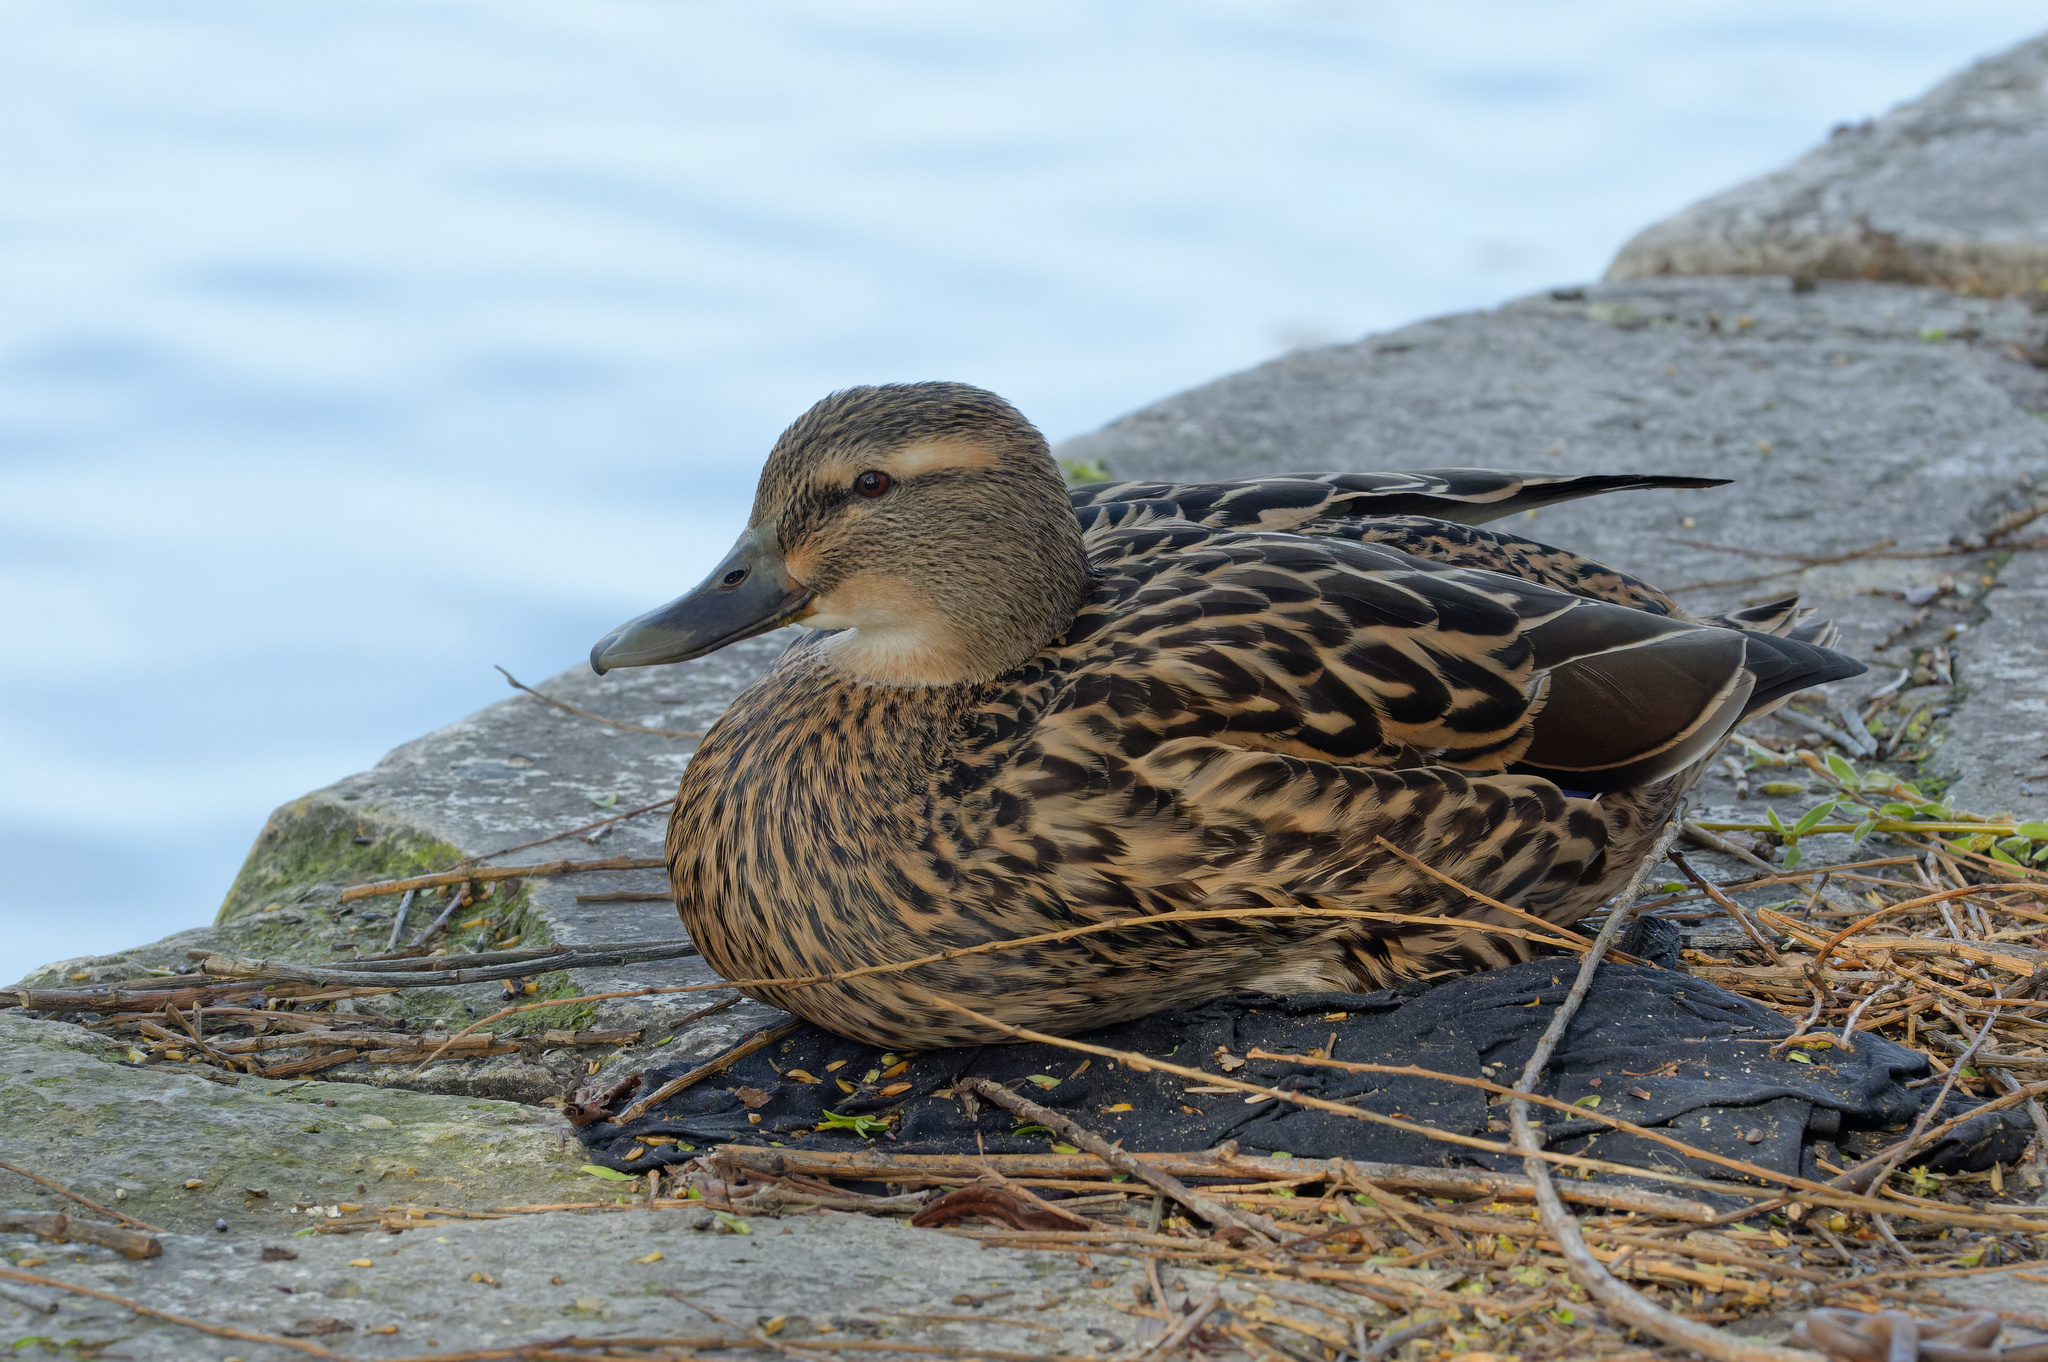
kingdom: Animalia
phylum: Chordata
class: Aves
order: Anseriformes
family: Anatidae
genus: Anas
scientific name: Anas platyrhynchos
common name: Mallard
